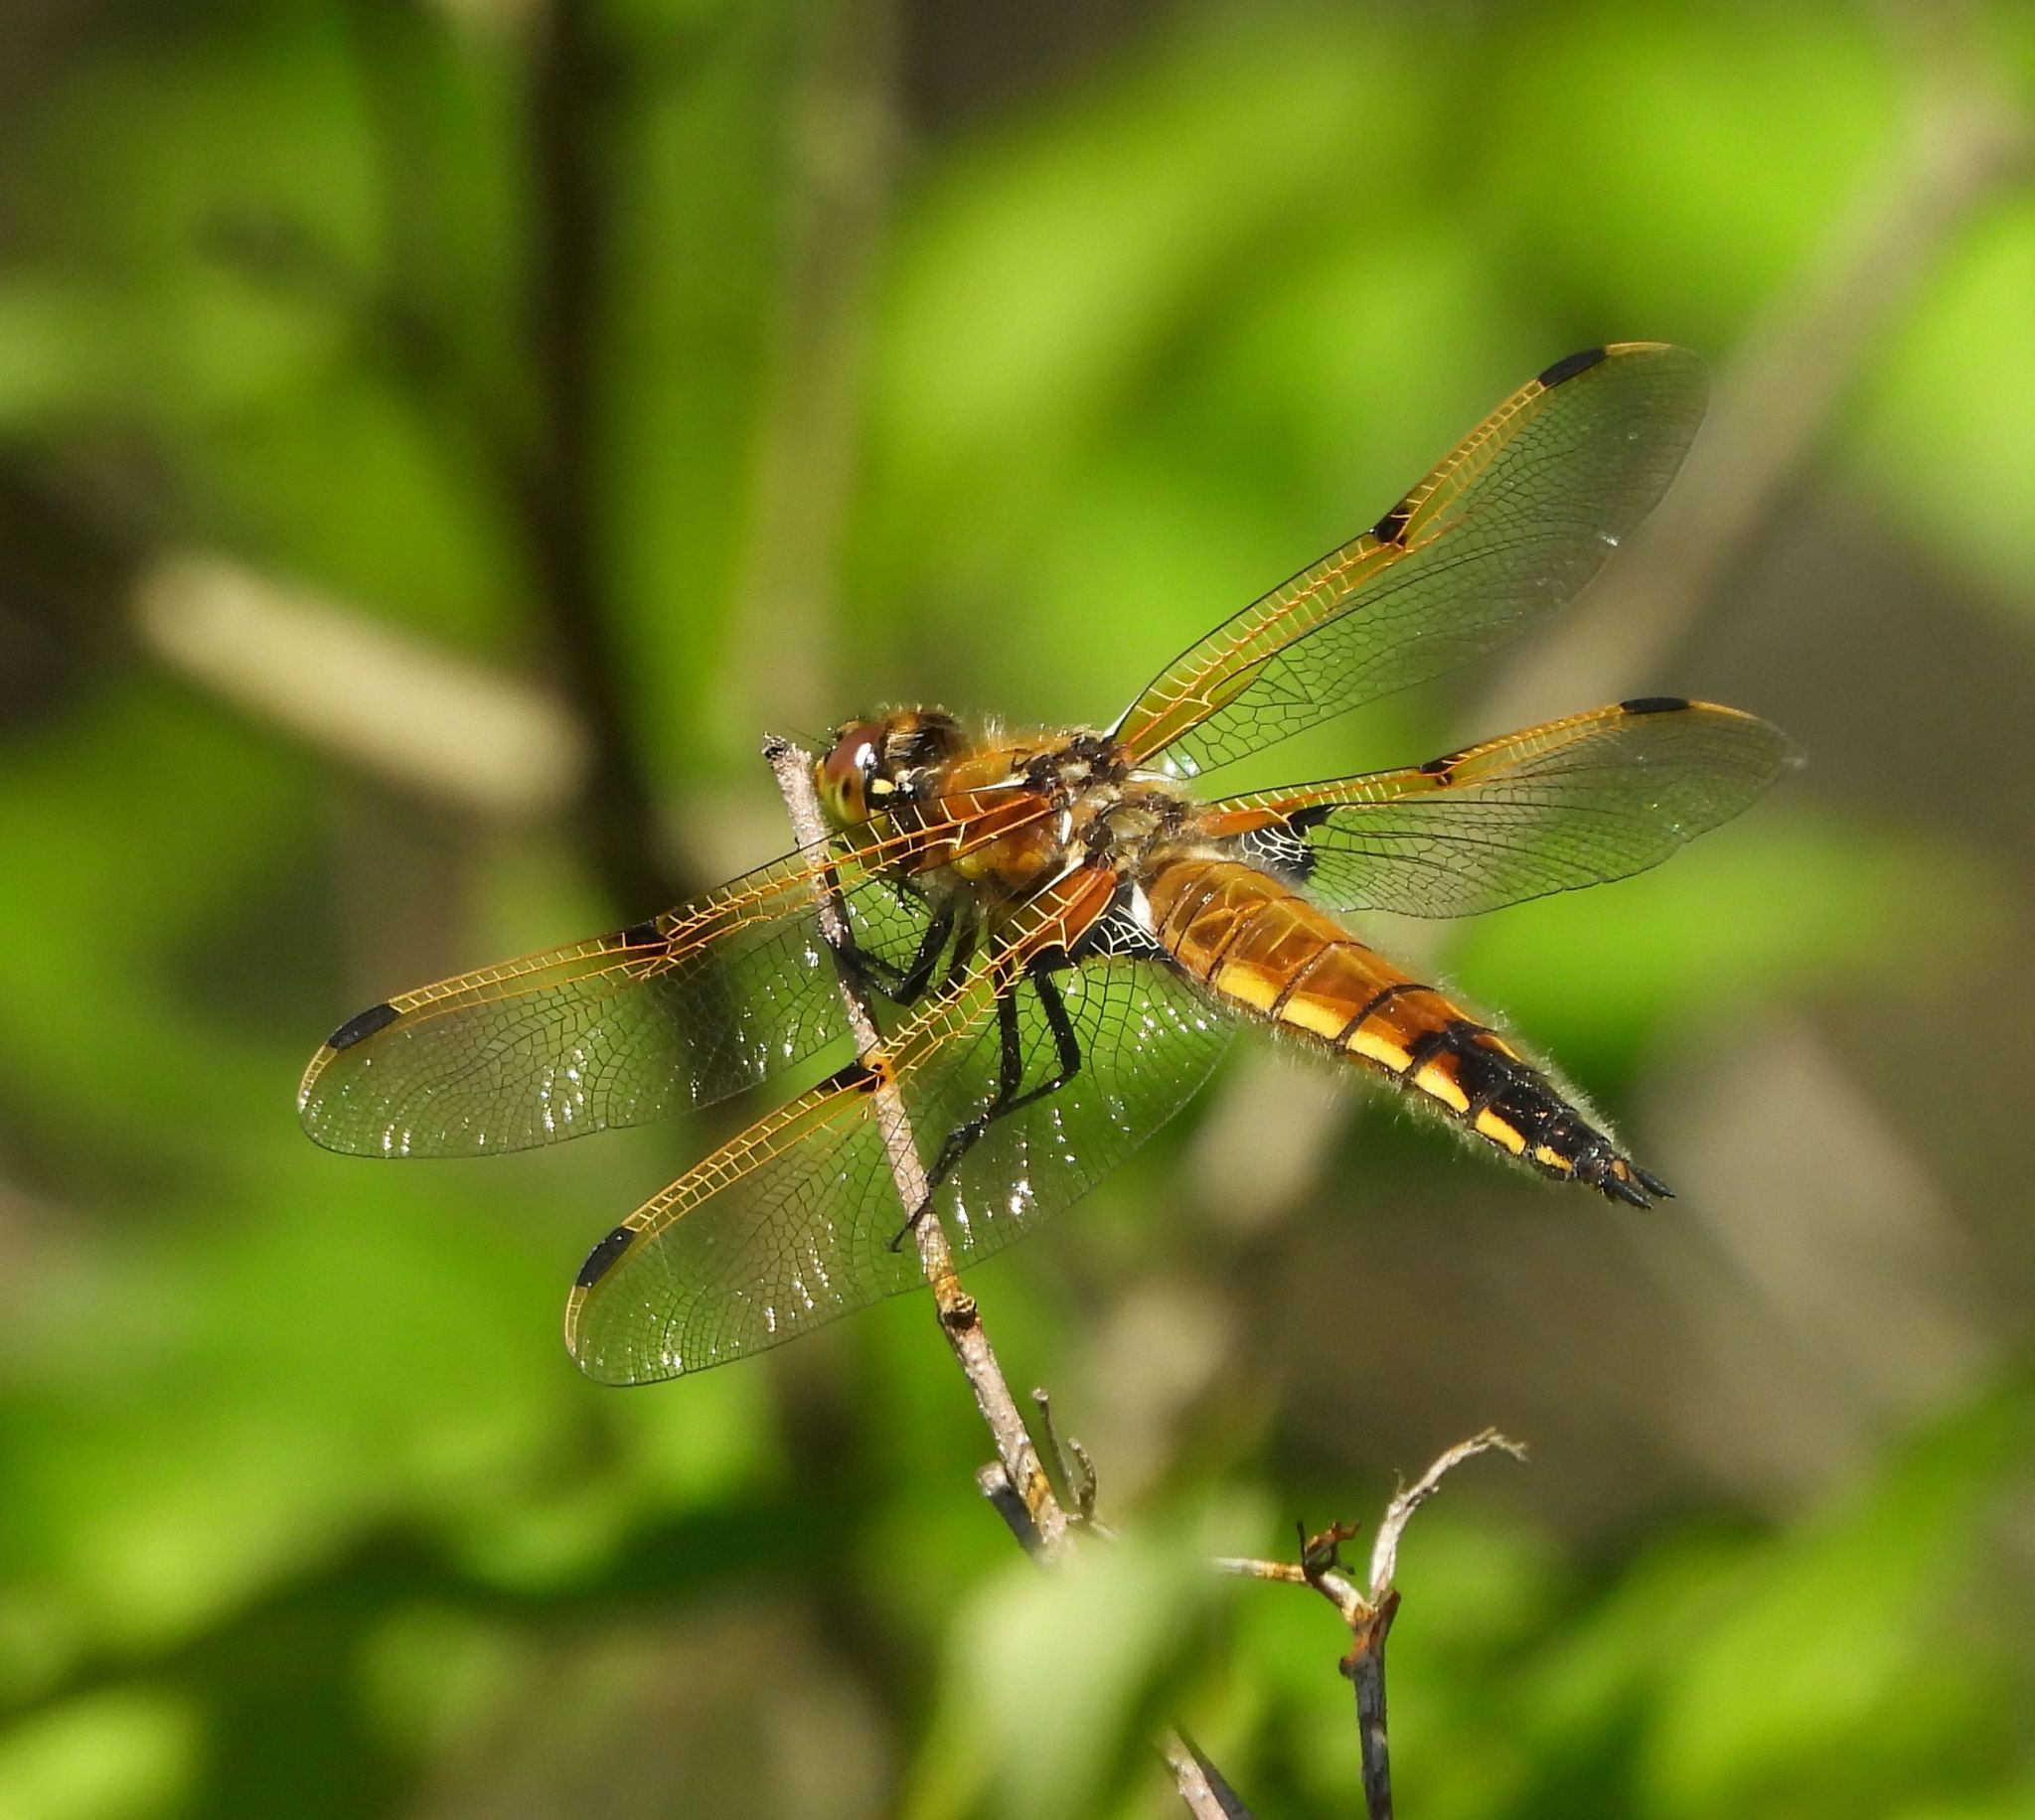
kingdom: Animalia
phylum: Arthropoda
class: Insecta
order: Odonata
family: Libellulidae
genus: Libellula
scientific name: Libellula quadrimaculata
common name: Four-spotted chaser
